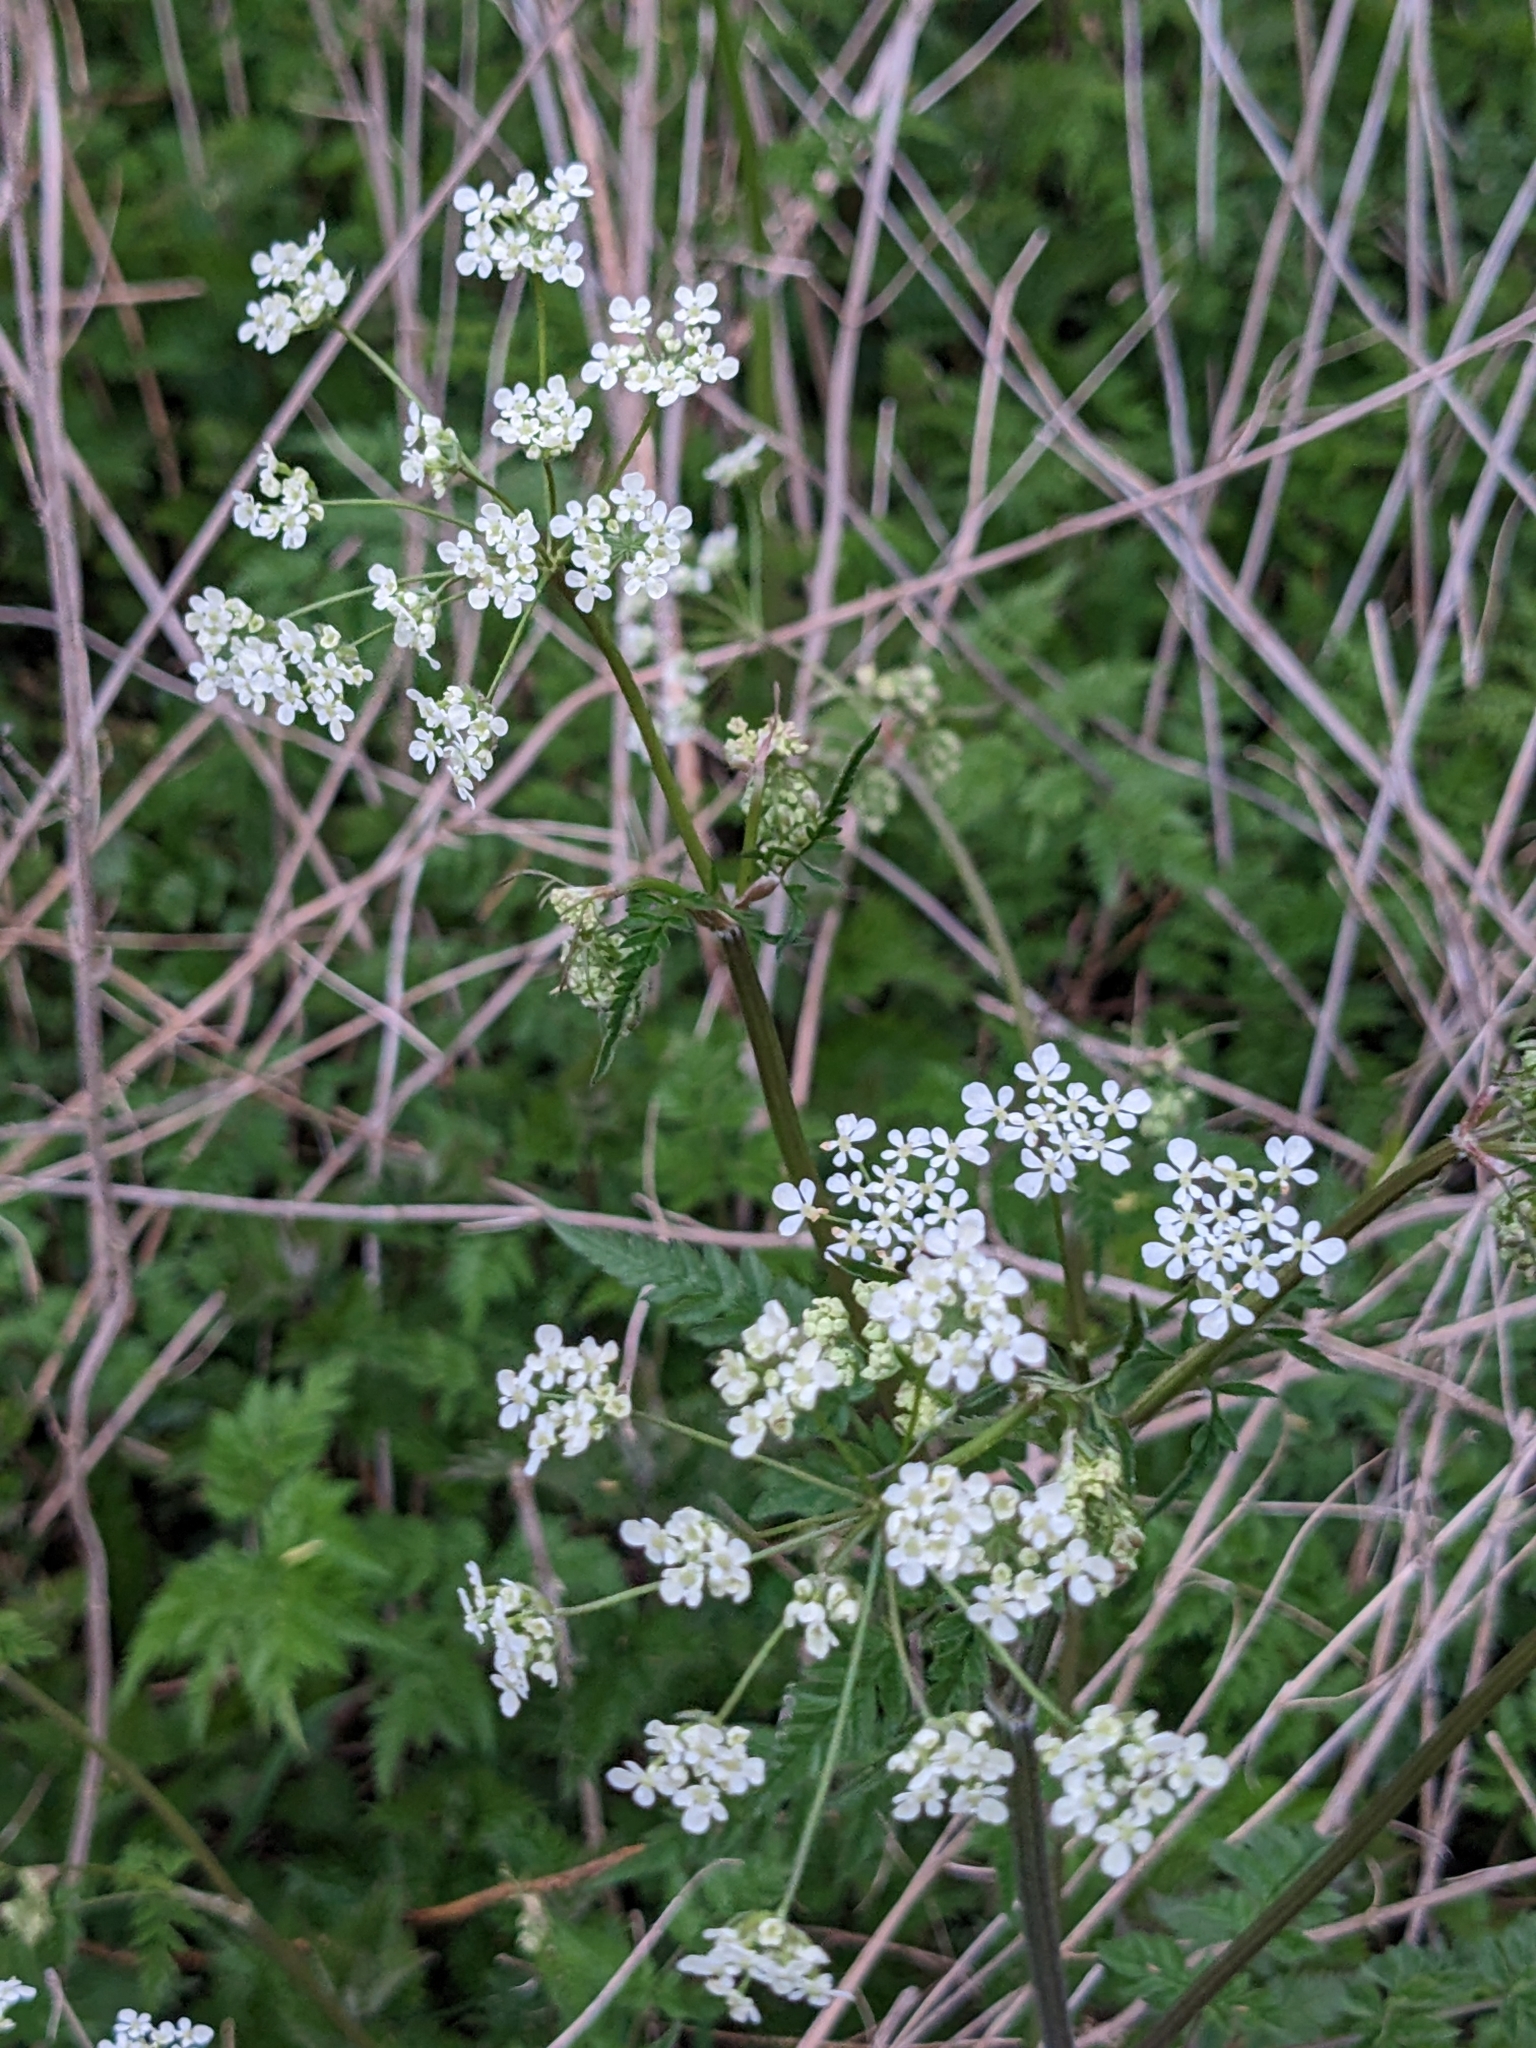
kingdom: Plantae
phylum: Tracheophyta
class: Magnoliopsida
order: Apiales
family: Apiaceae
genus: Anthriscus
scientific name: Anthriscus sylvestris
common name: Cow parsley
